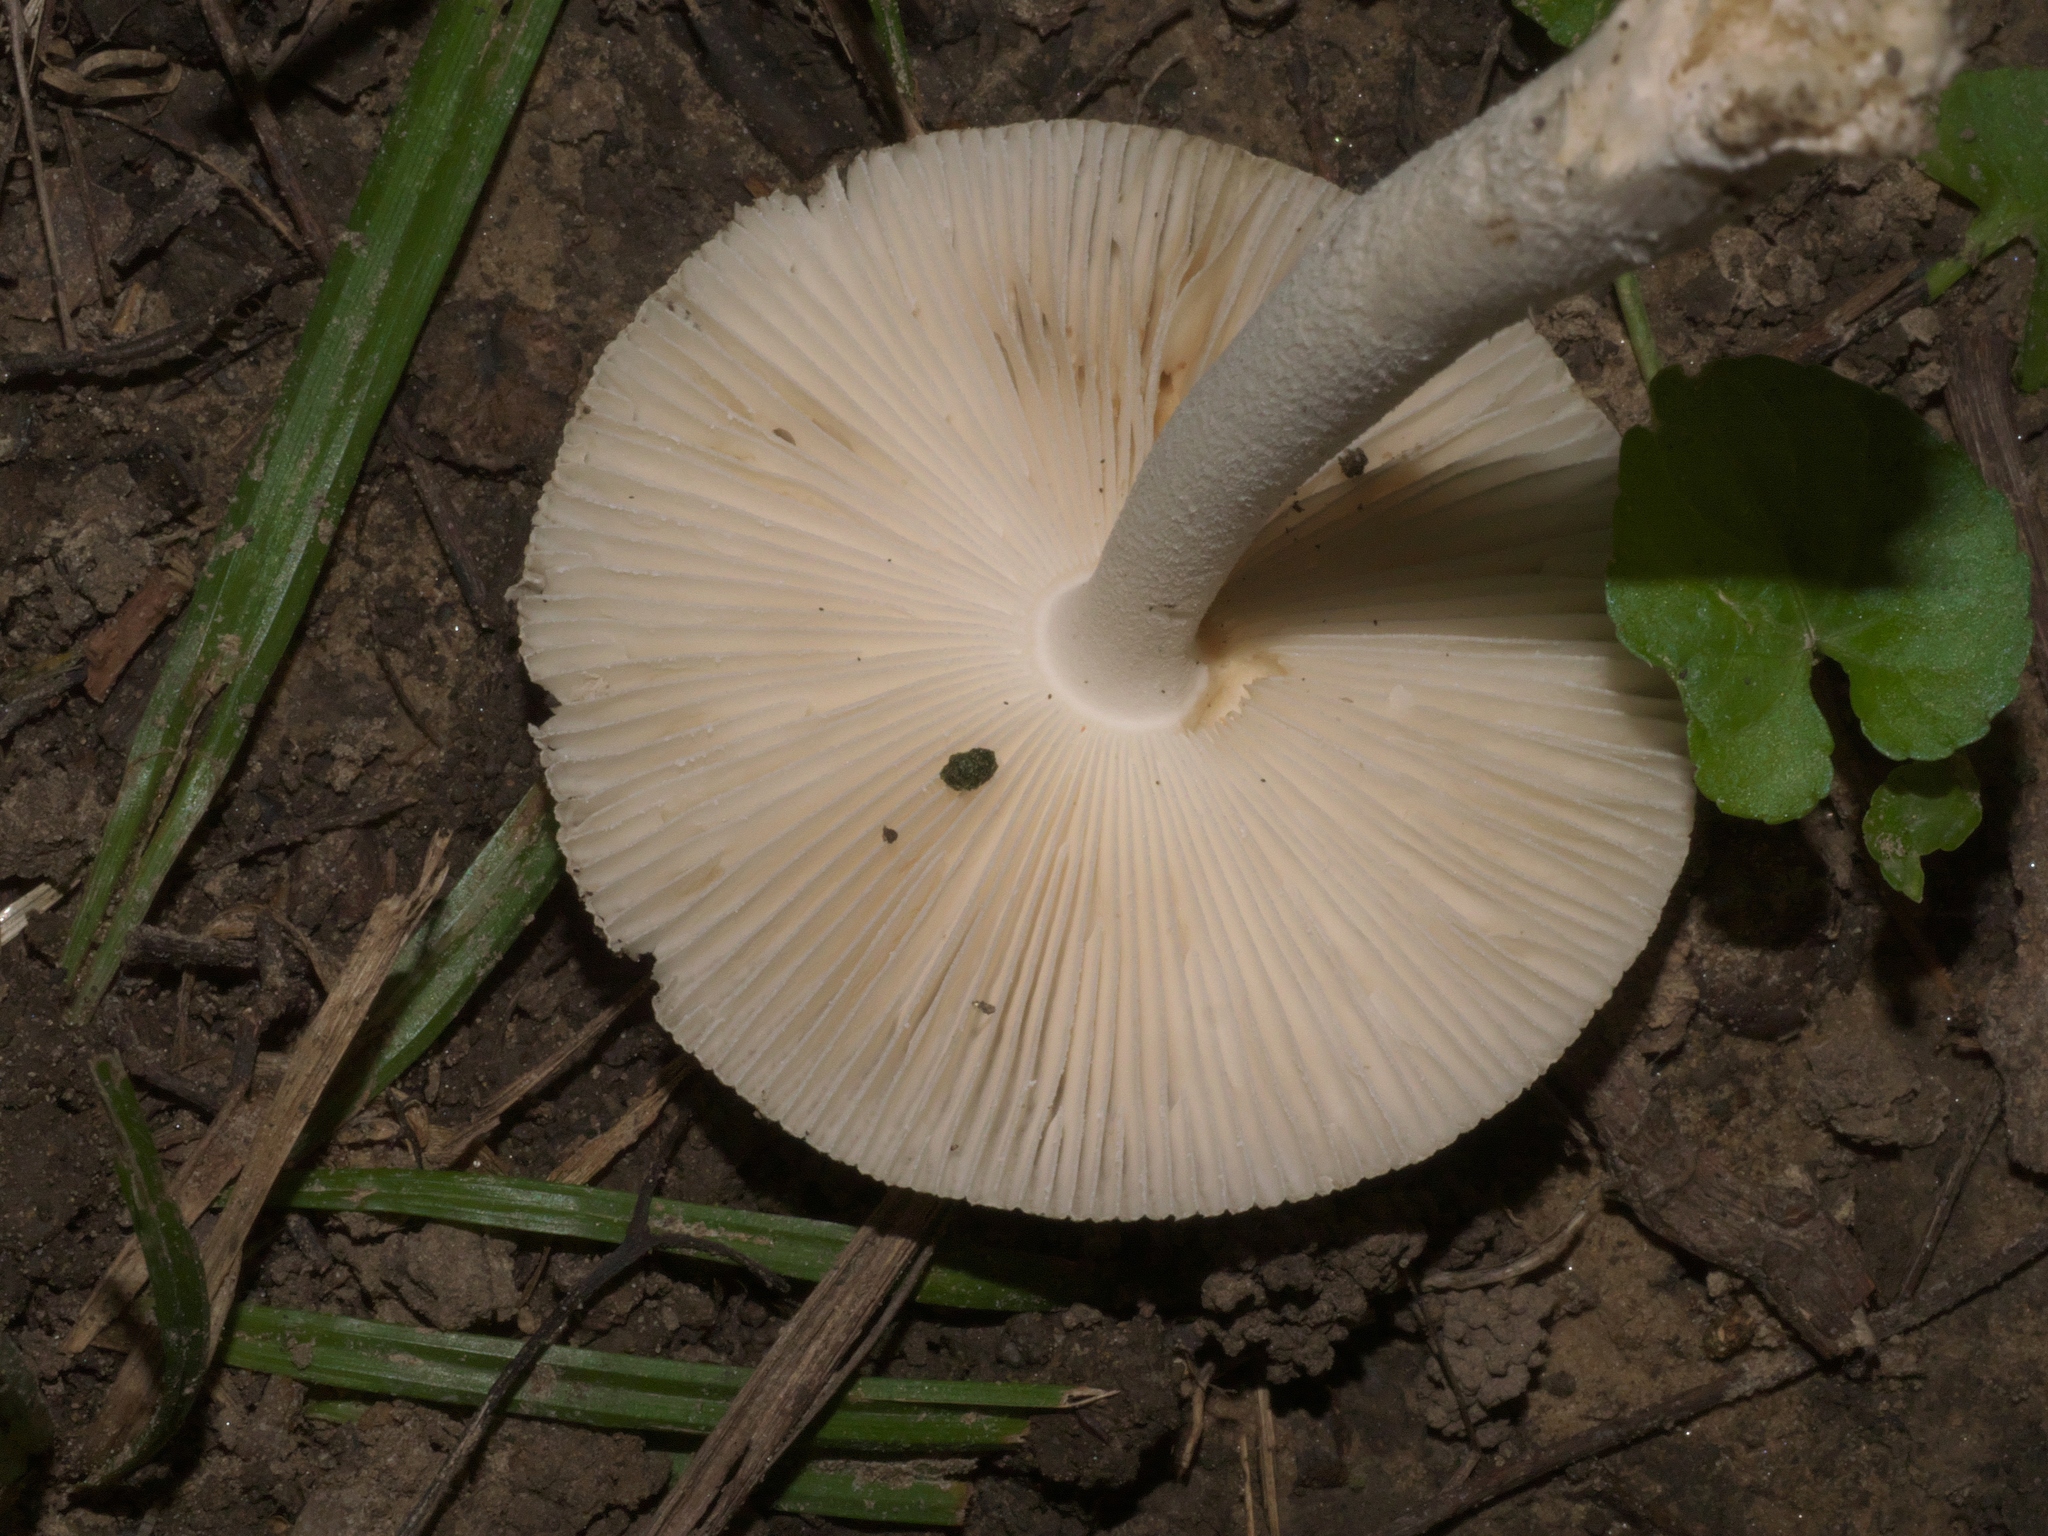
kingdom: Fungi
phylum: Basidiomycota
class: Agaricomycetes
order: Agaricales
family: Amanitaceae
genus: Amanita
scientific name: Amanita vaginata
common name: Grisette
